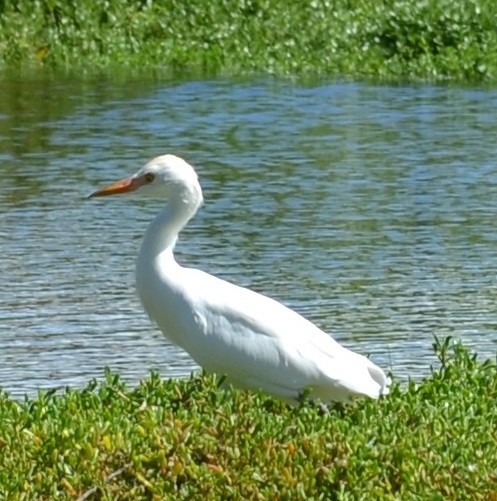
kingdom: Animalia
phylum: Chordata
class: Aves
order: Pelecaniformes
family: Ardeidae
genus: Bubulcus
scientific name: Bubulcus ibis
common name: Cattle egret
